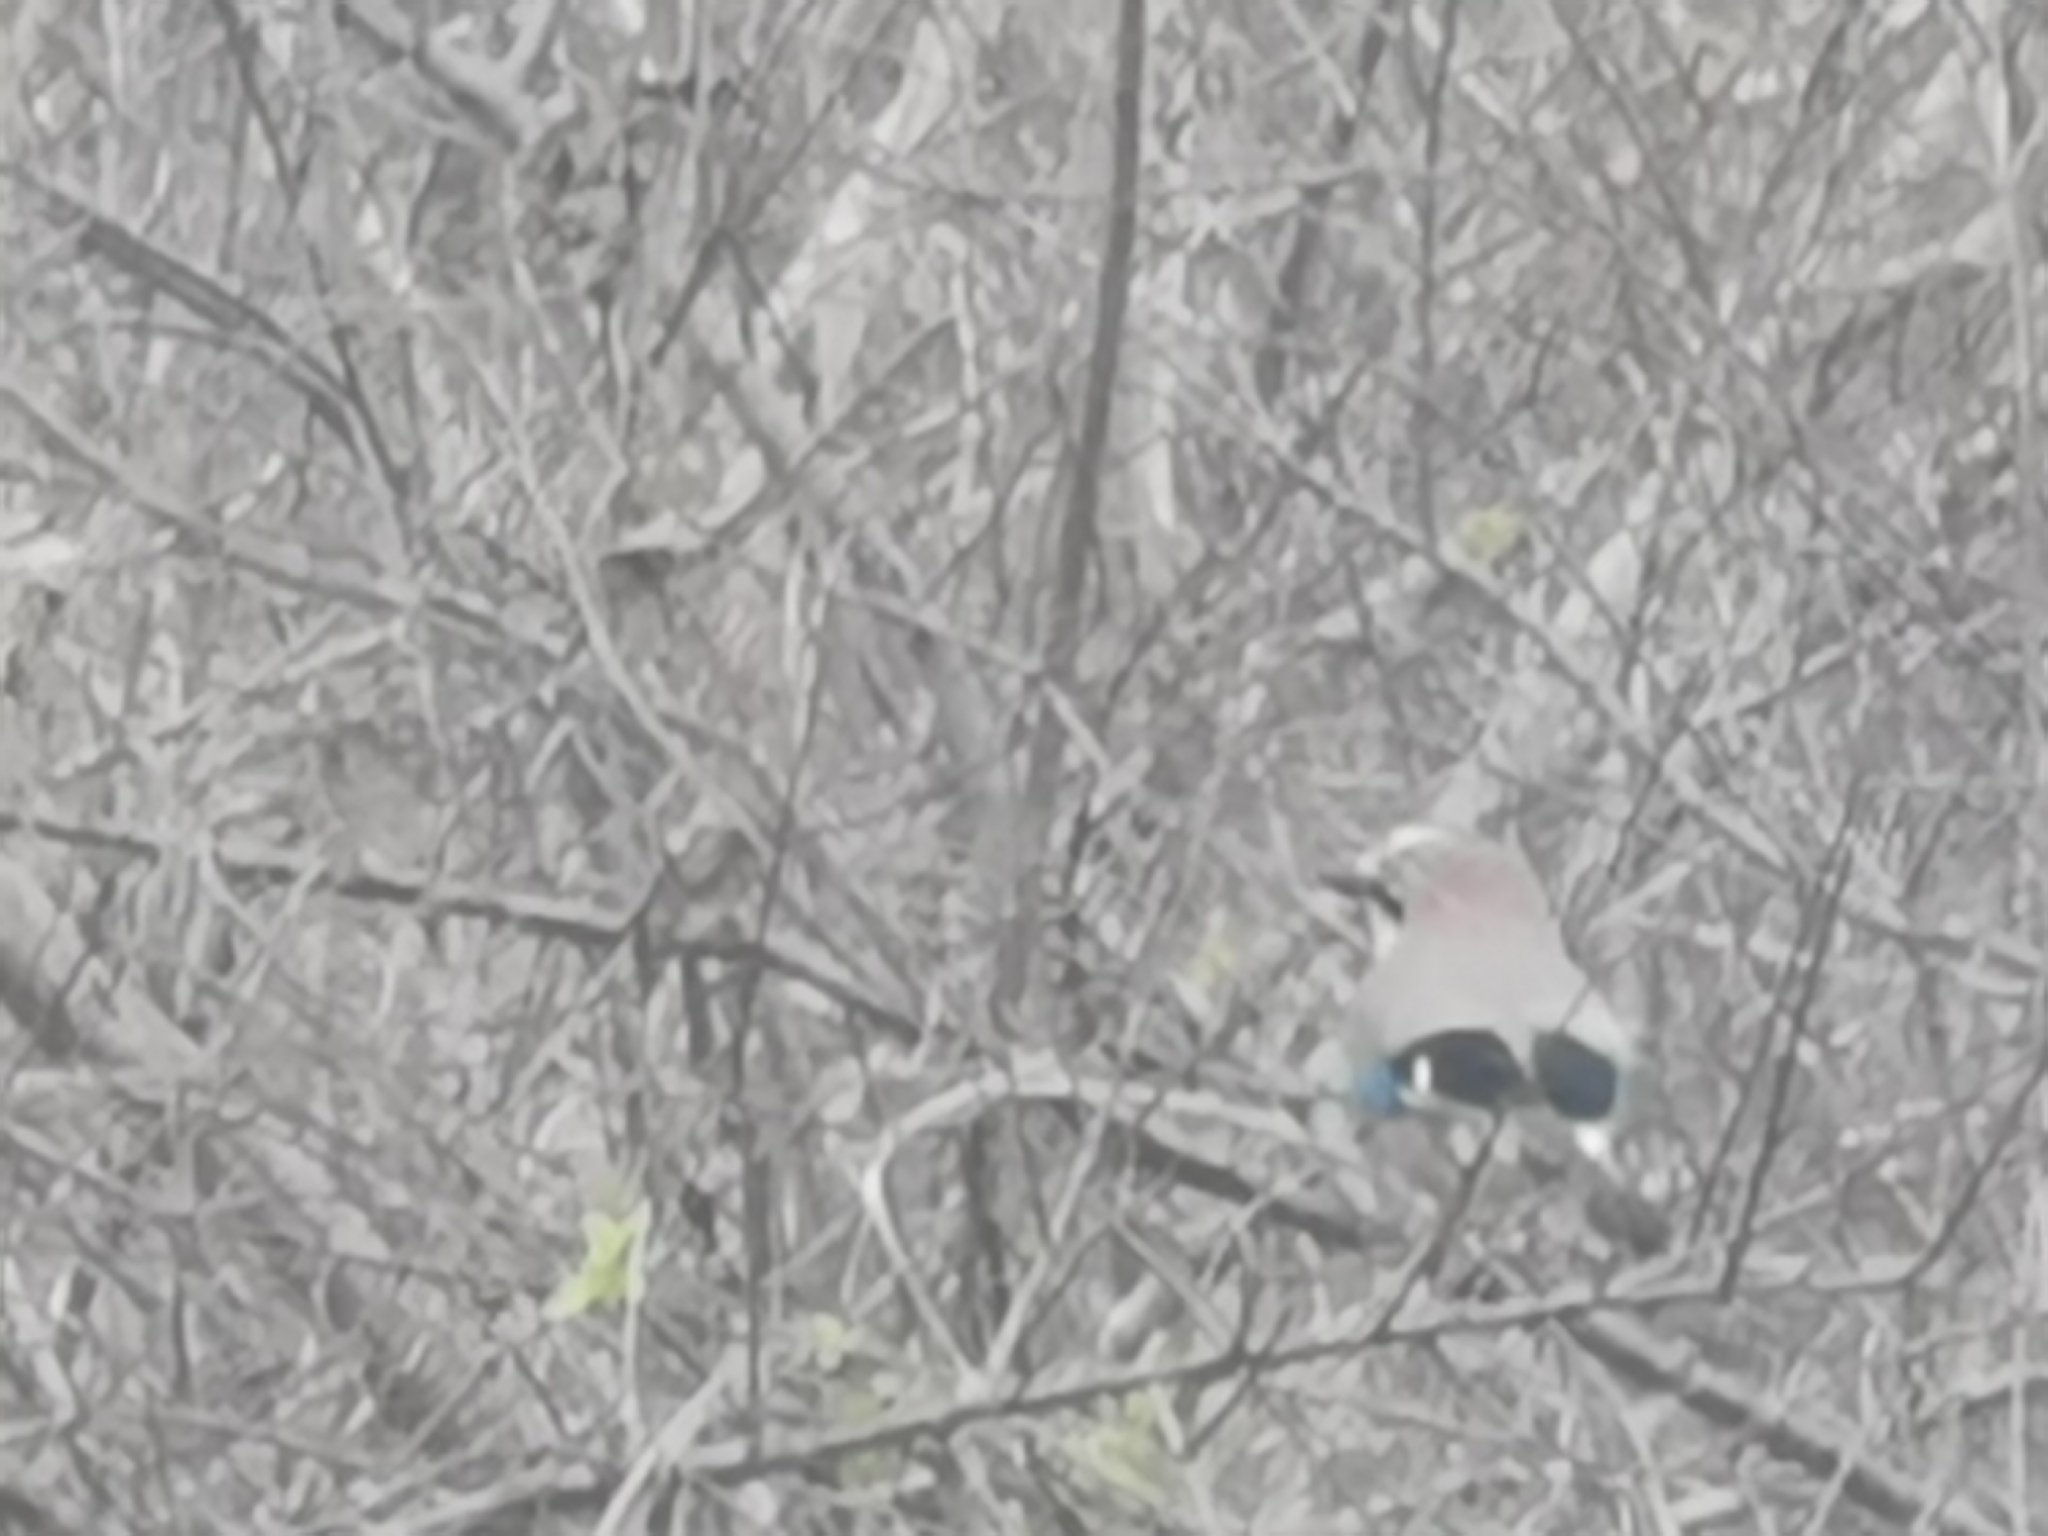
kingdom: Animalia
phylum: Chordata
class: Aves
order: Passeriformes
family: Corvidae
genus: Garrulus
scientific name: Garrulus glandarius
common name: Eurasian jay
